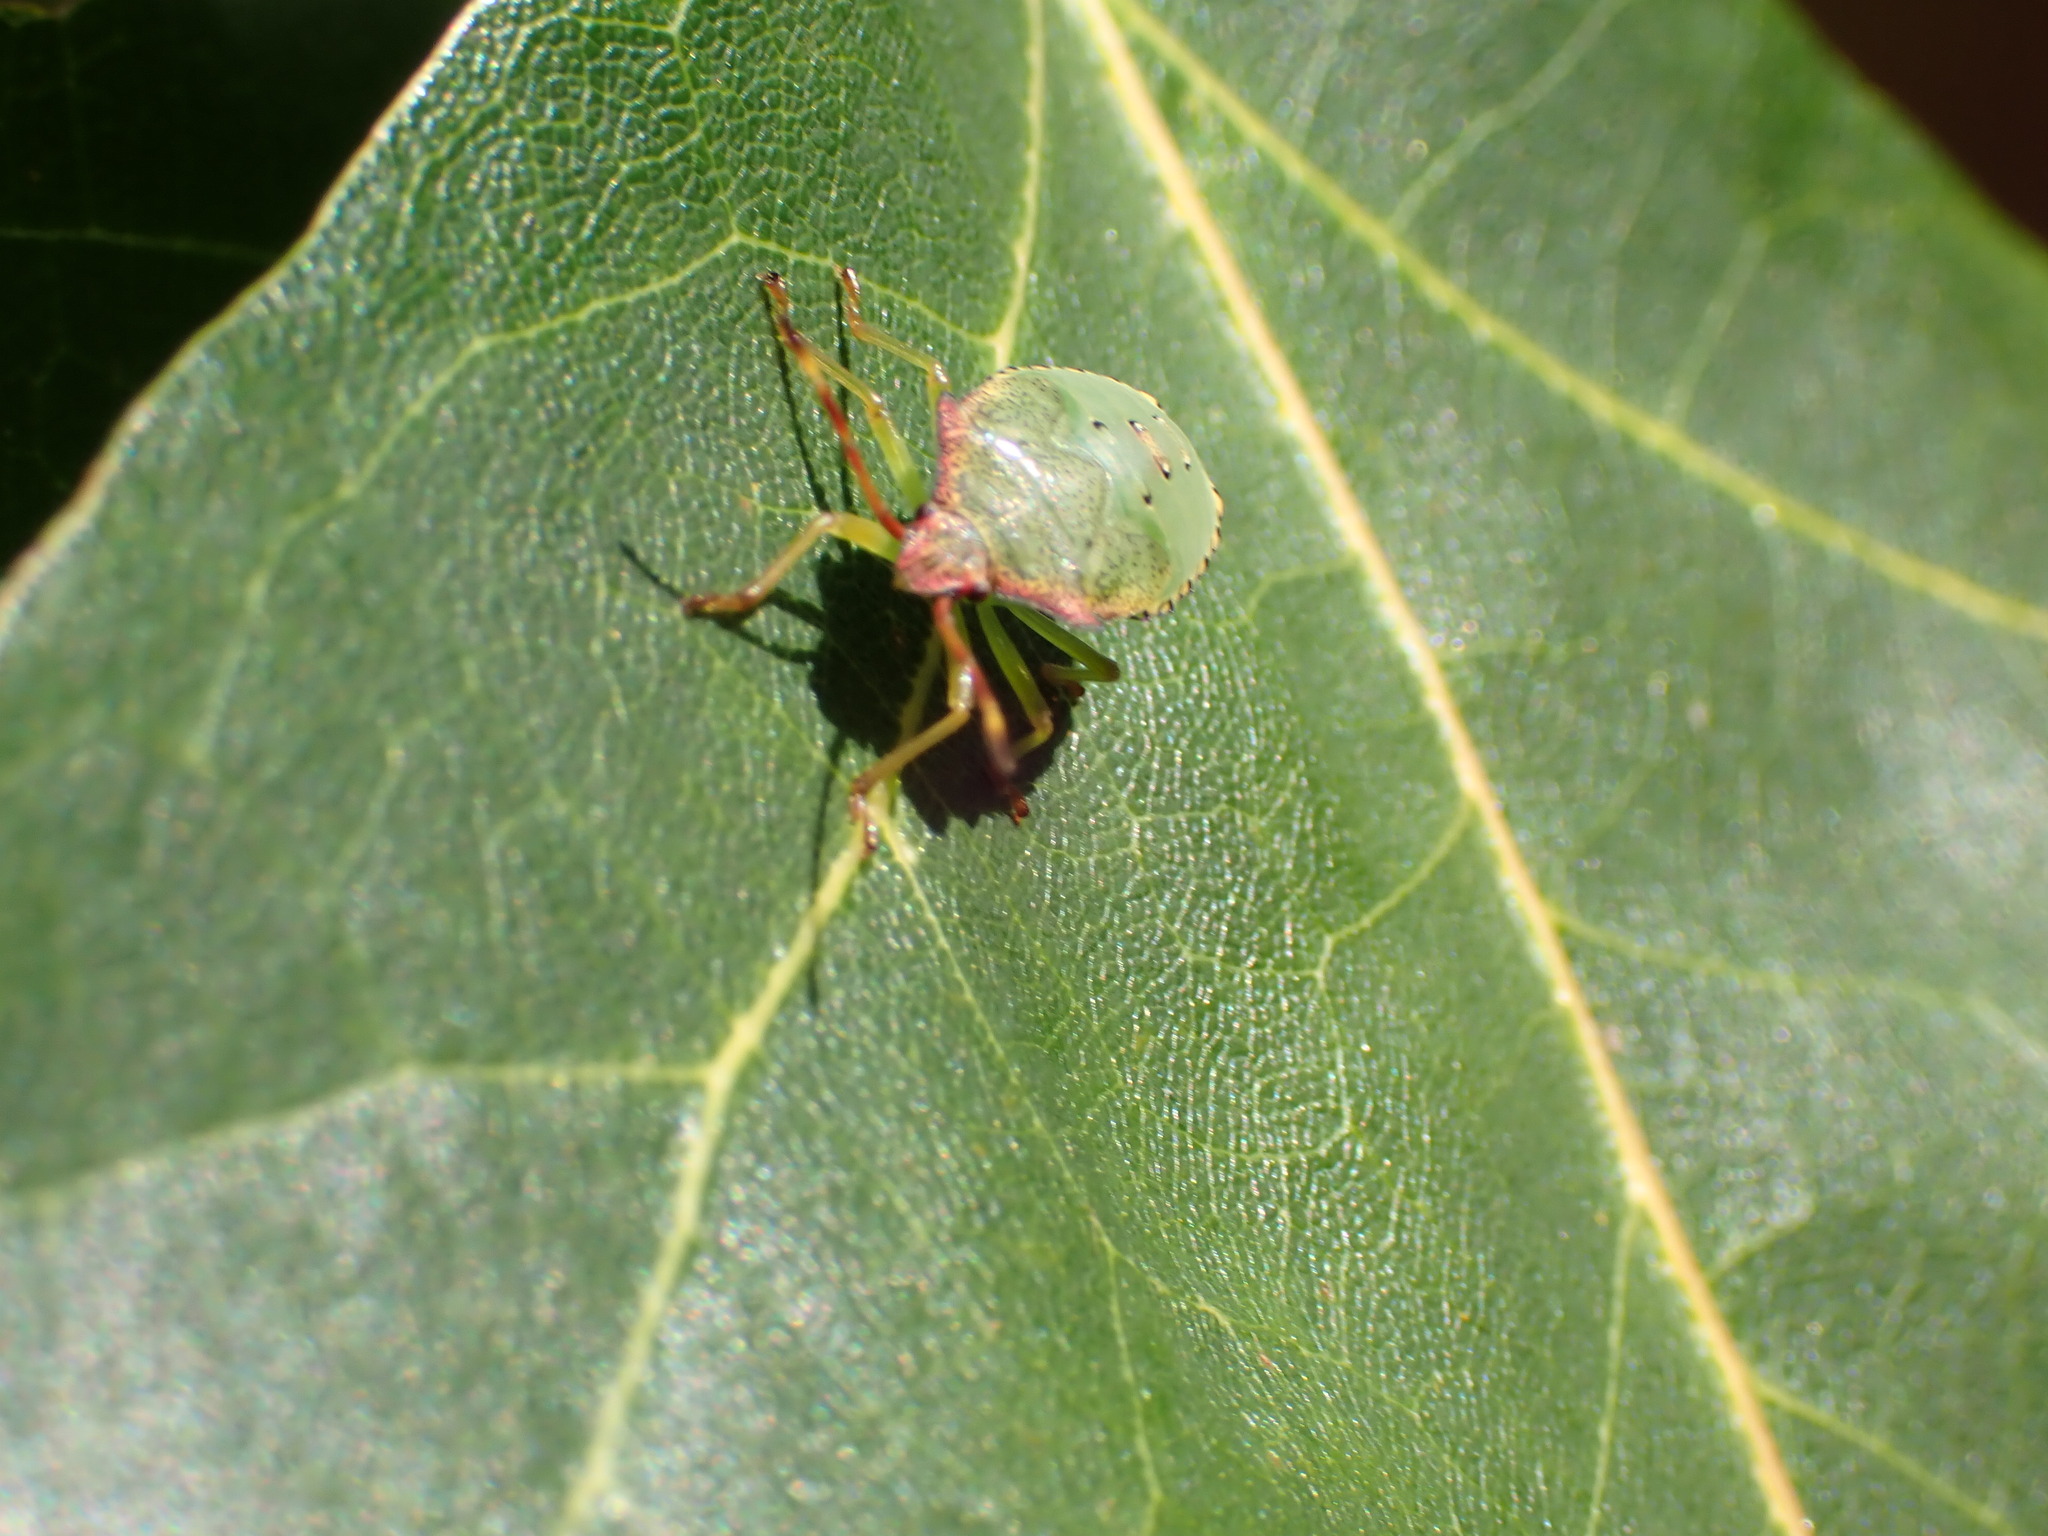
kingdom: Animalia
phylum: Arthropoda
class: Insecta
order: Hemiptera
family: Acanthosomatidae
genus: Acanthosoma
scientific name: Acanthosoma haemorrhoidale
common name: Hawthorn shieldbug
